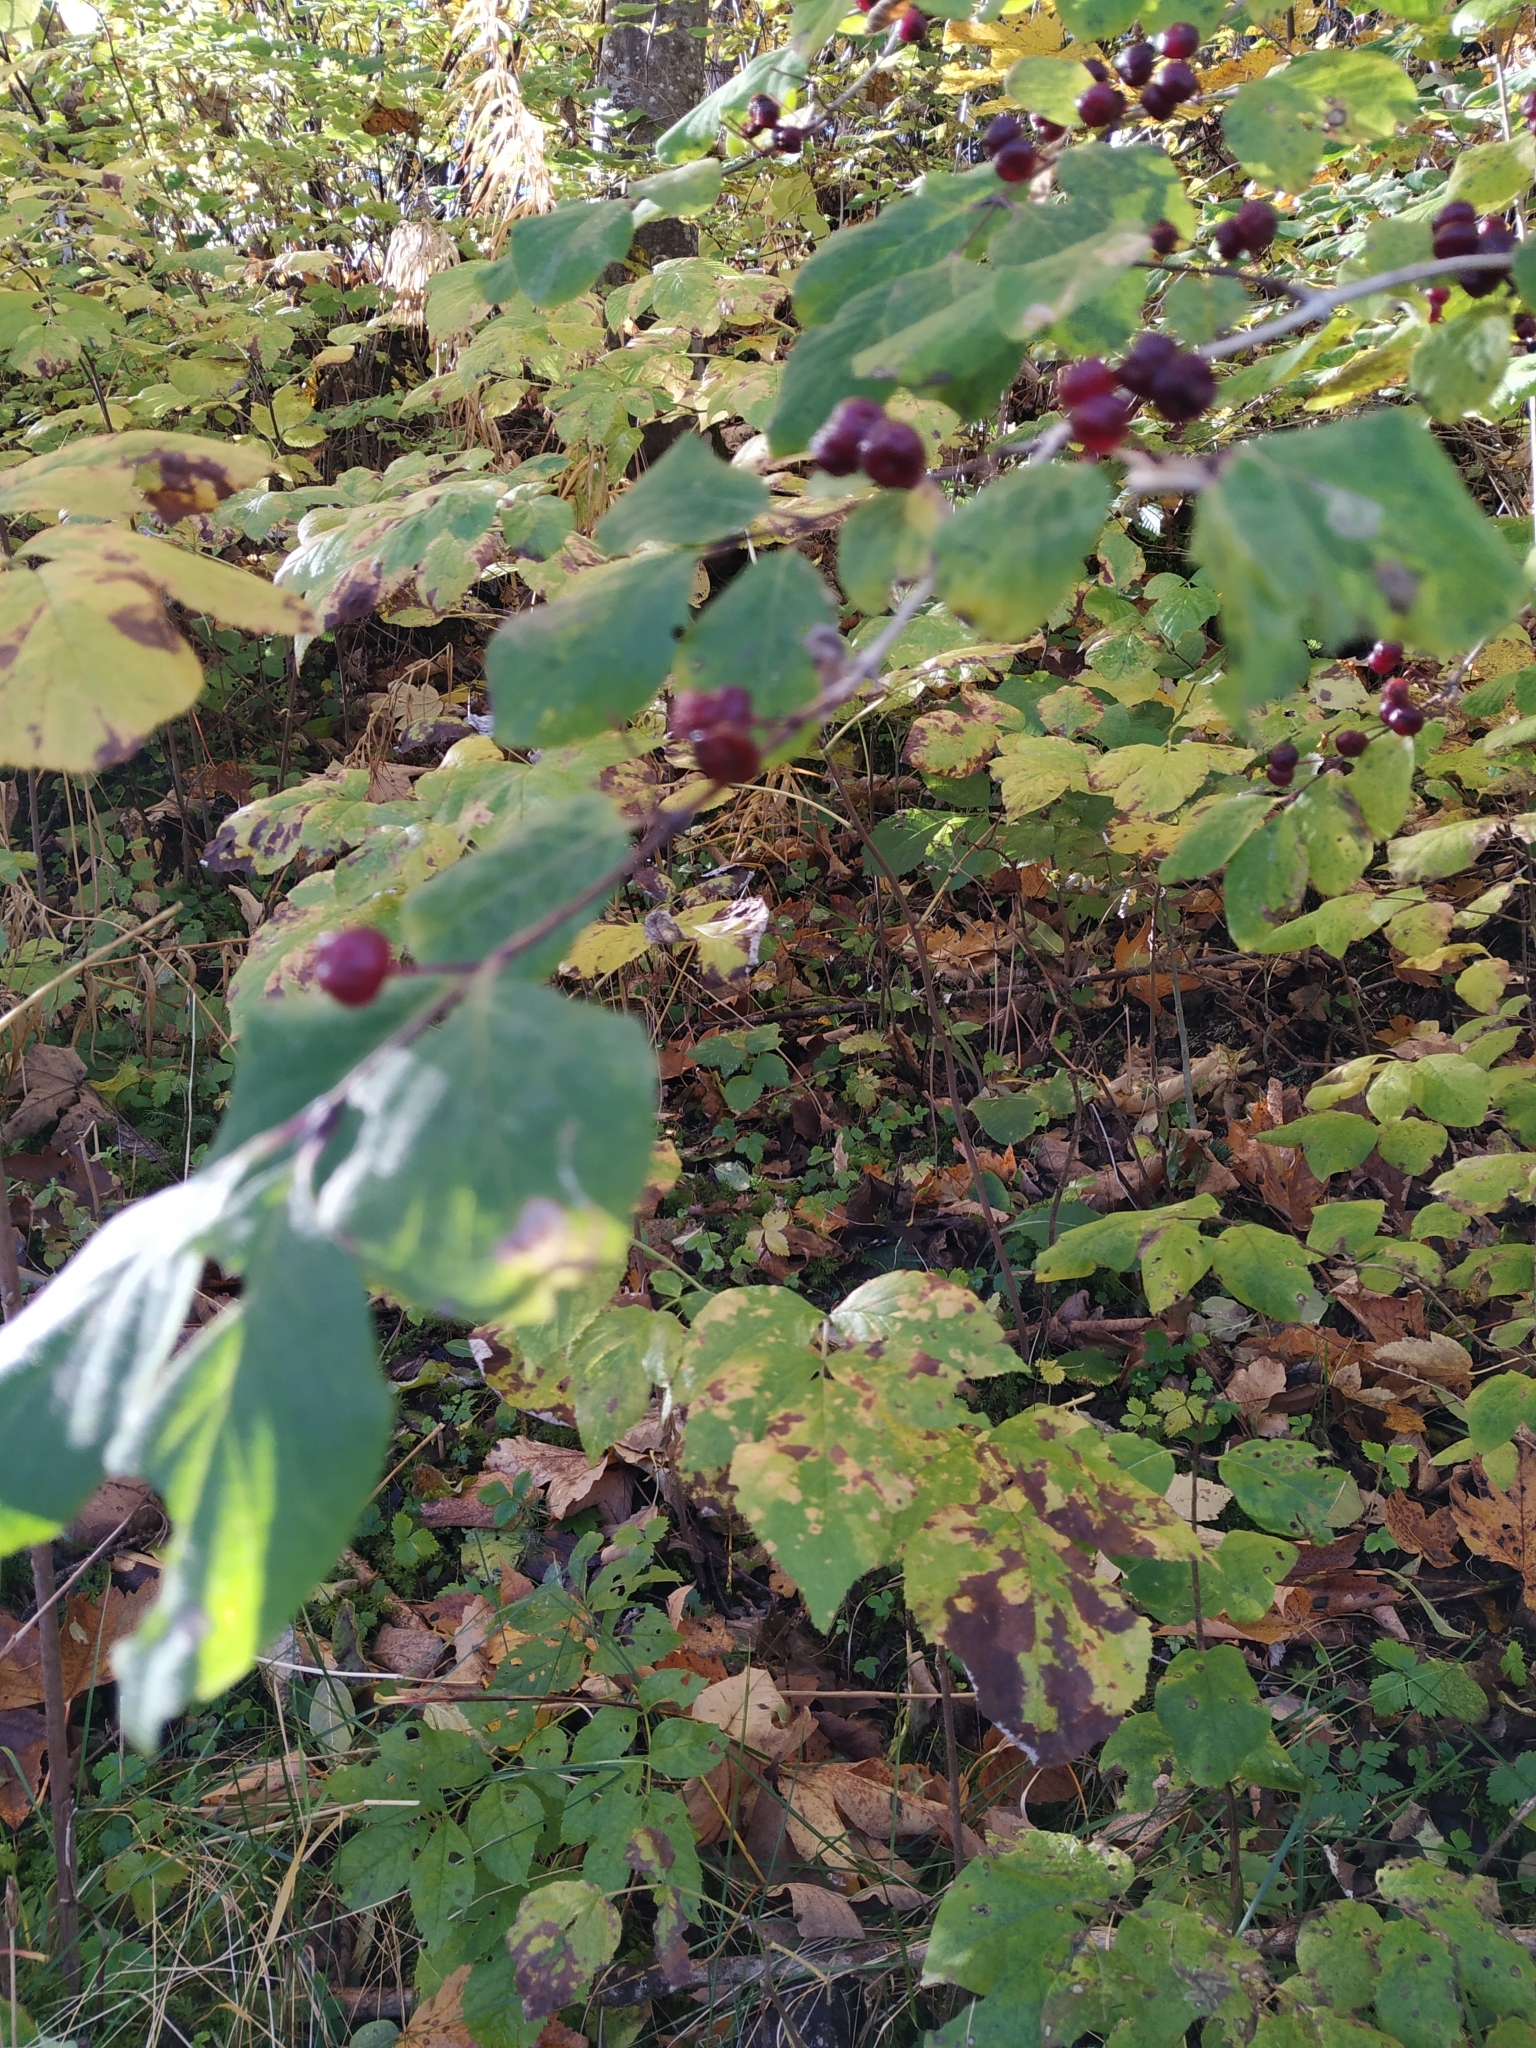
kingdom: Plantae
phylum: Tracheophyta
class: Magnoliopsida
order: Dipsacales
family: Caprifoliaceae
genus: Lonicera
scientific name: Lonicera xylosteum
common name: Fly honeysuckle
